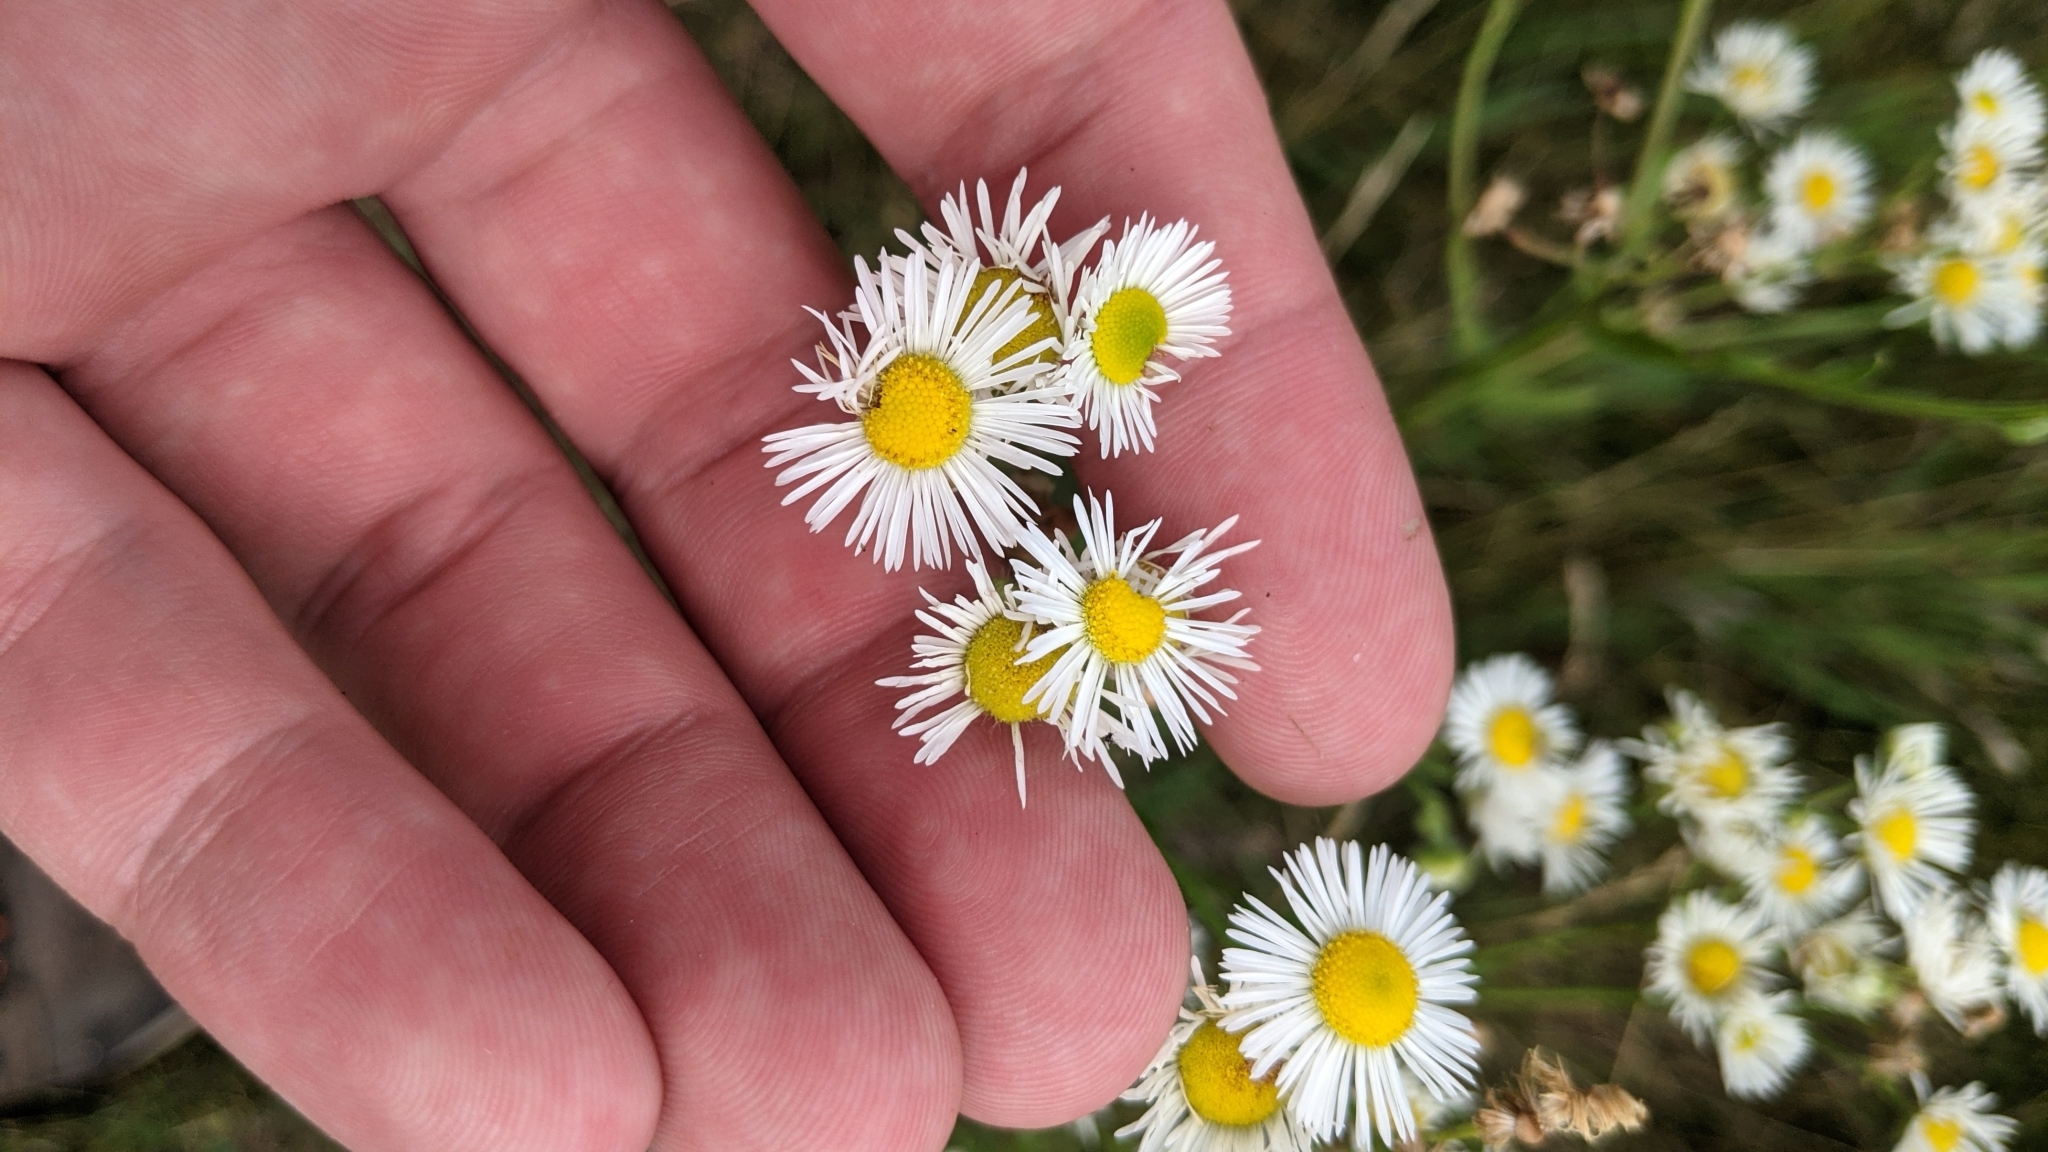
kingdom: Plantae
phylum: Tracheophyta
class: Magnoliopsida
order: Asterales
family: Asteraceae
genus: Erigeron
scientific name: Erigeron strigosus
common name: Common eastern fleabane
